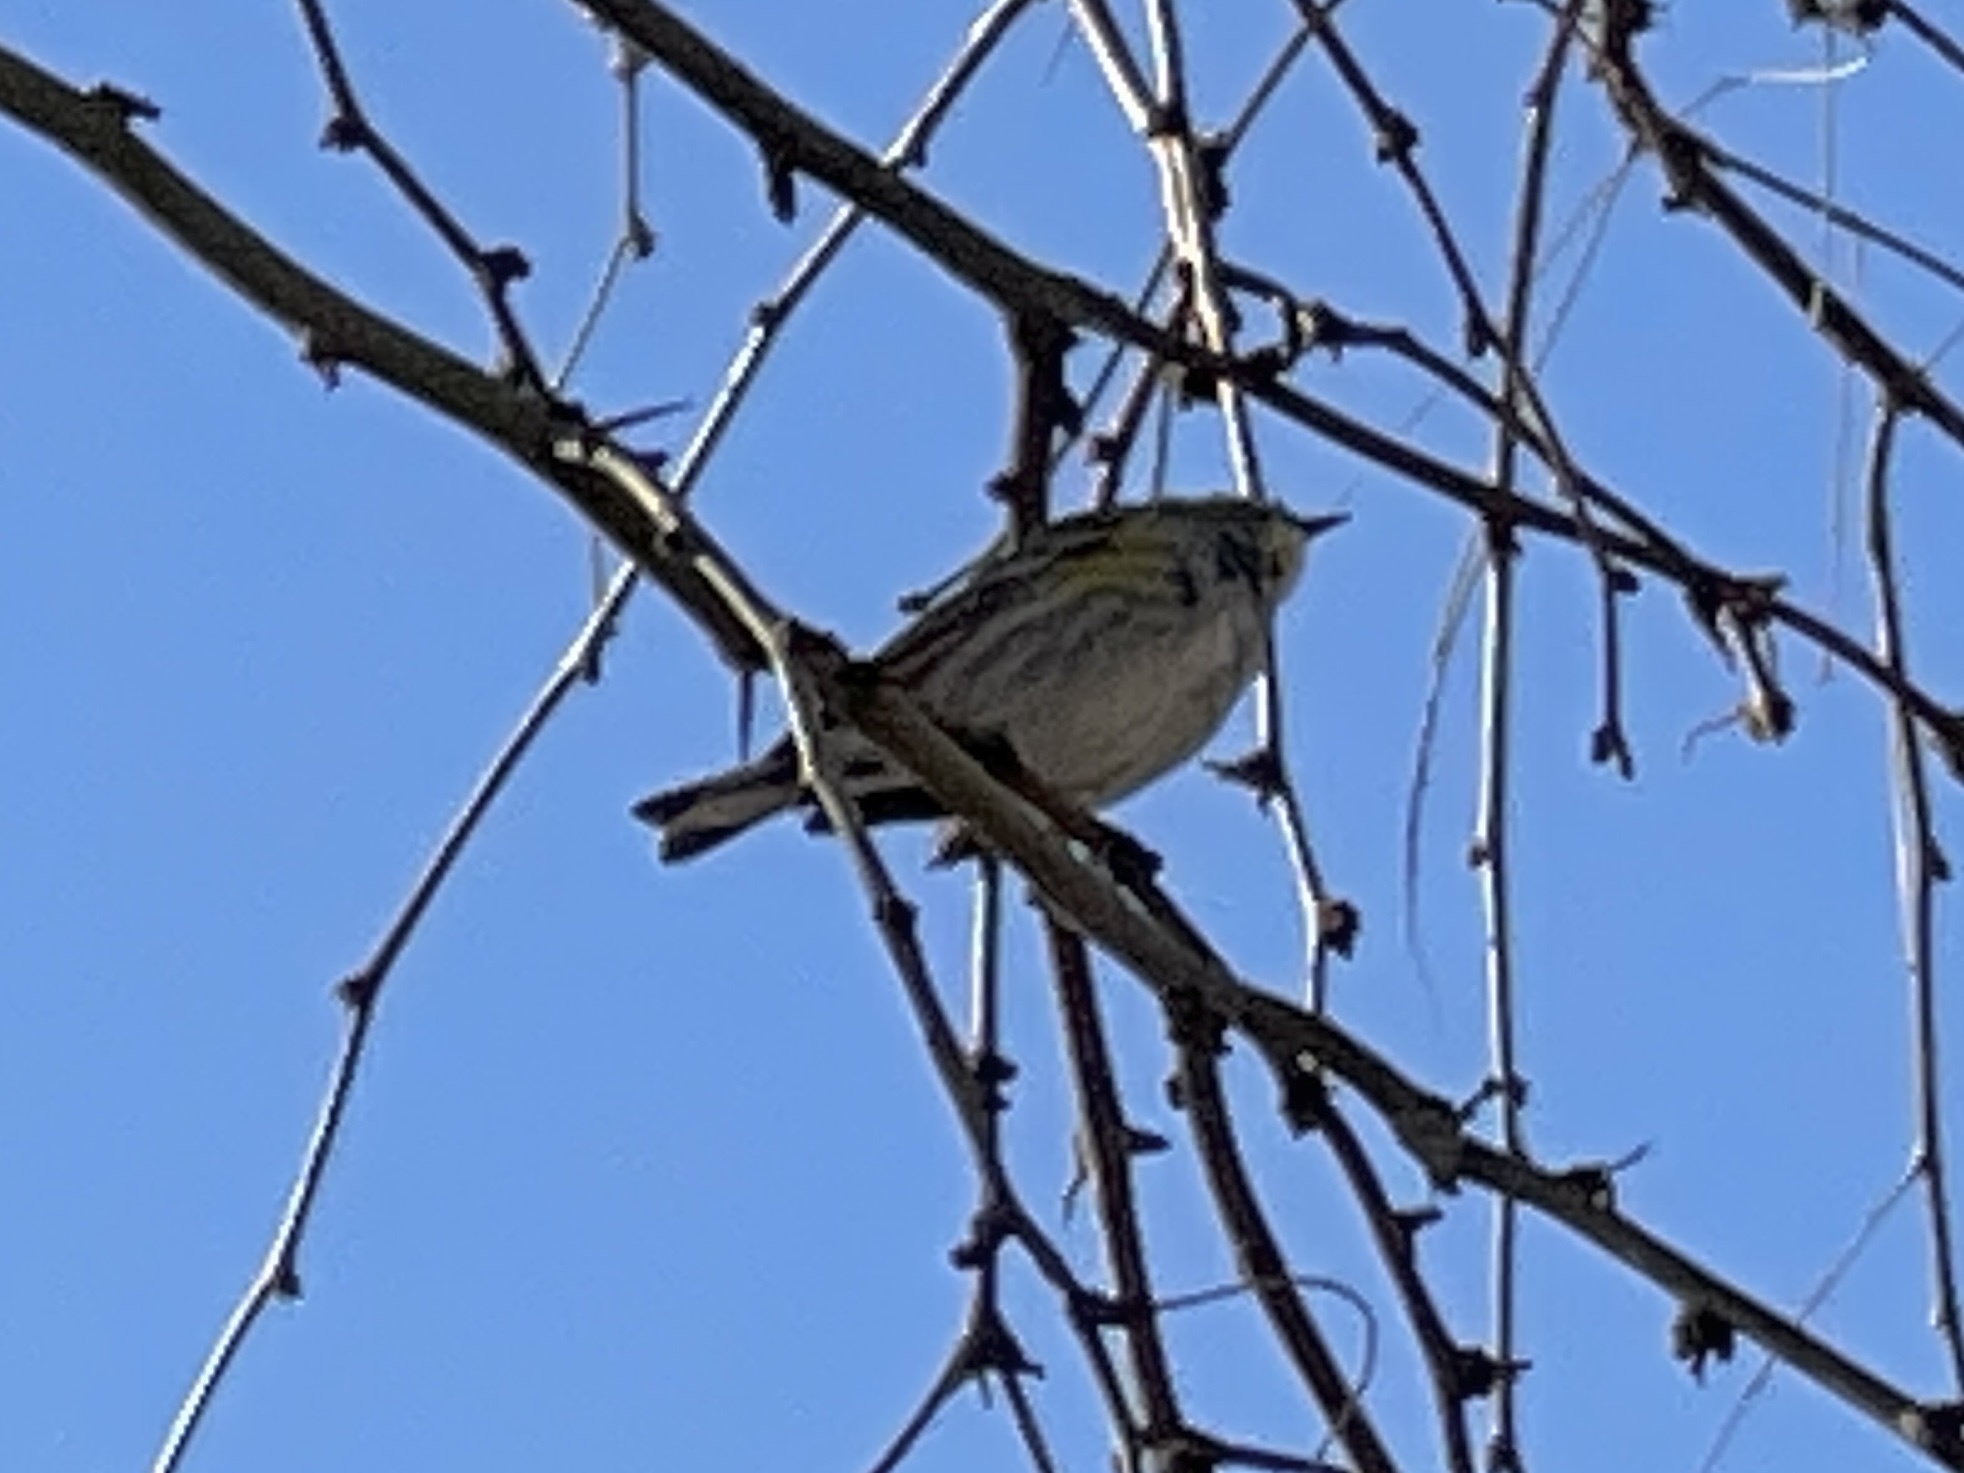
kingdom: Animalia
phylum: Chordata
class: Aves
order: Passeriformes
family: Parulidae
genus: Setophaga
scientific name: Setophaga coronata
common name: Myrtle warbler
